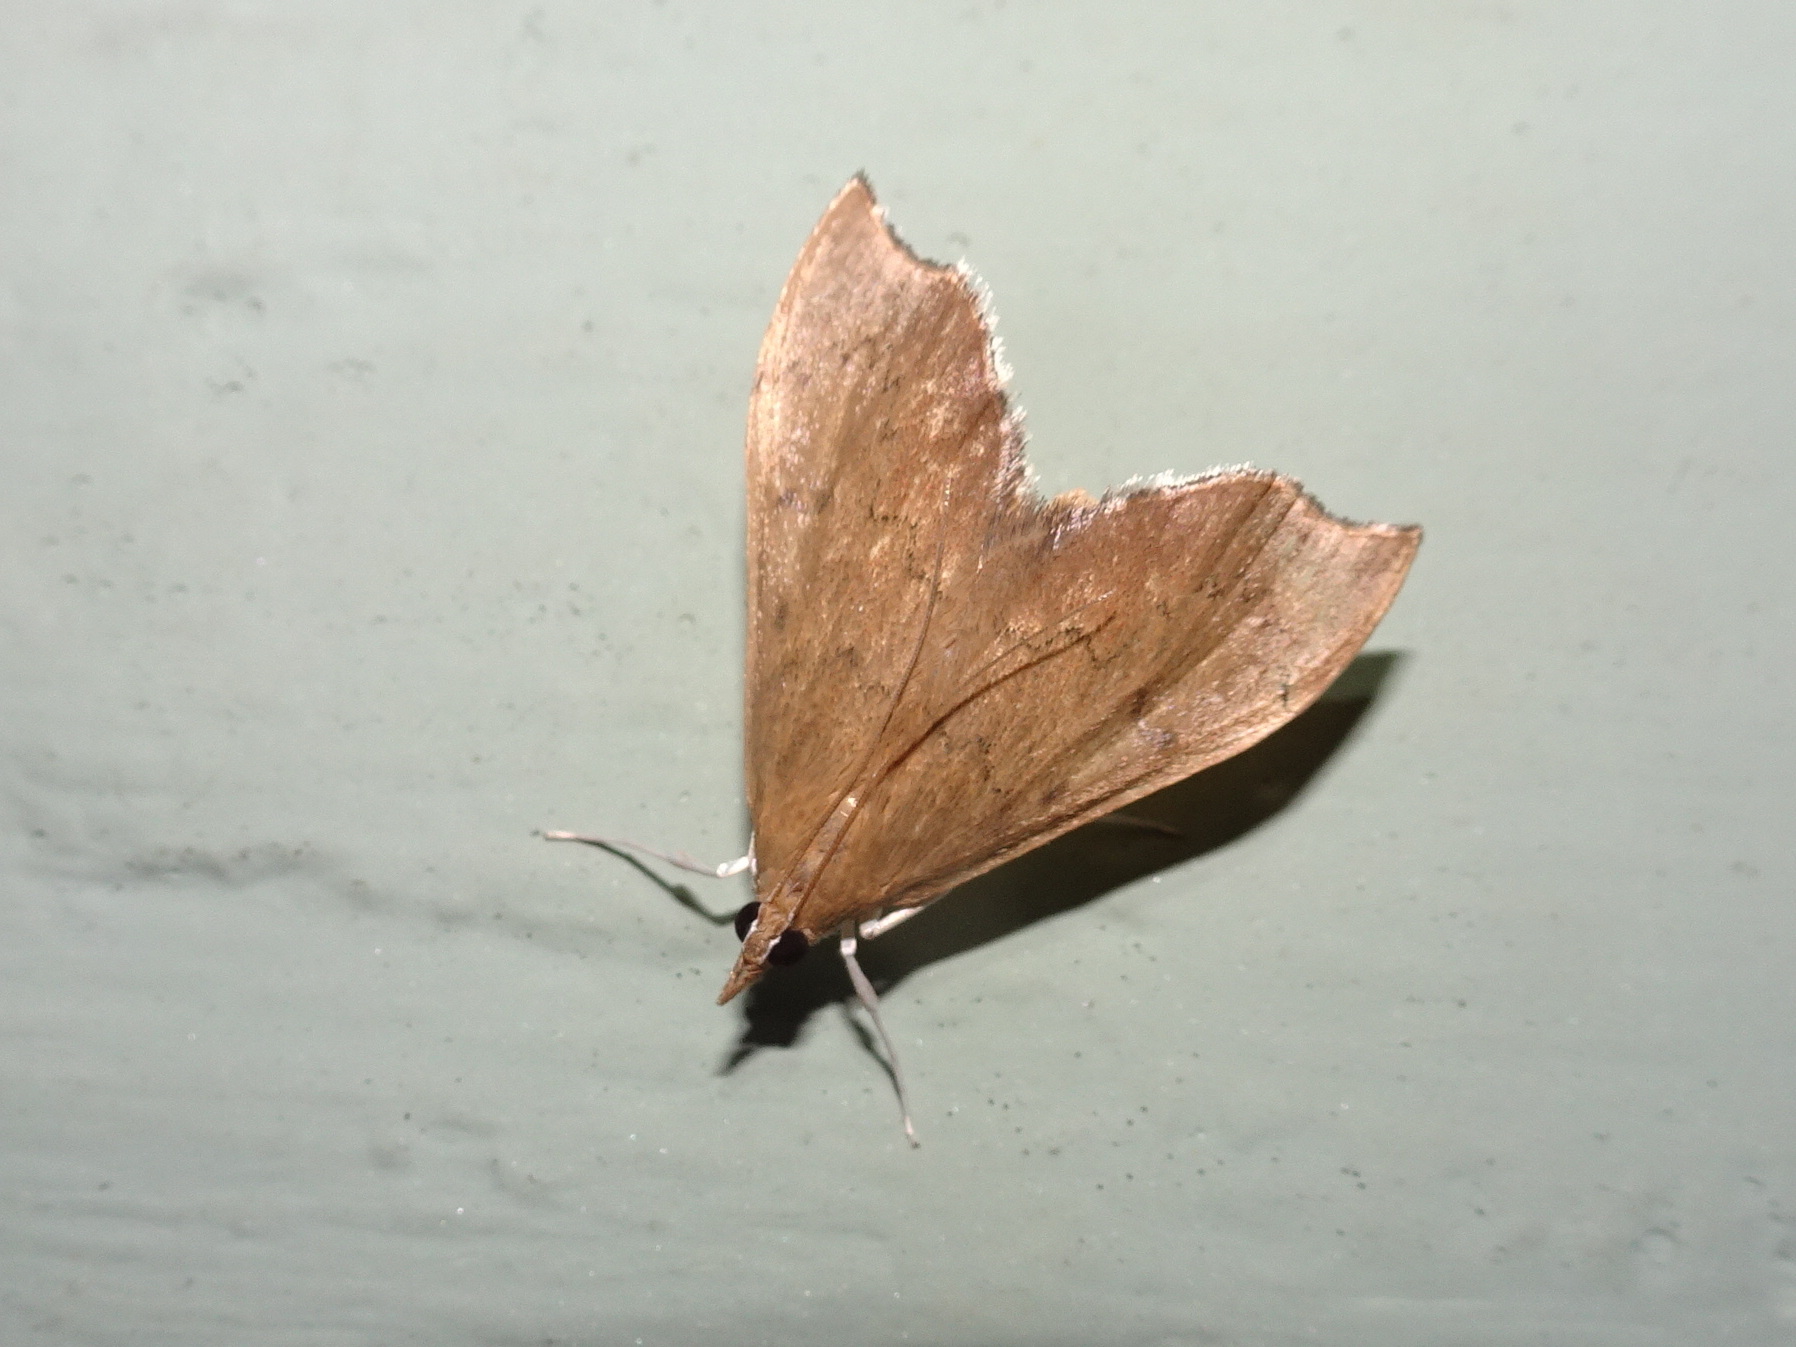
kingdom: Animalia
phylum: Arthropoda
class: Insecta
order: Lepidoptera
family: Crambidae
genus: Sericoplaga
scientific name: Sericoplaga externalis
